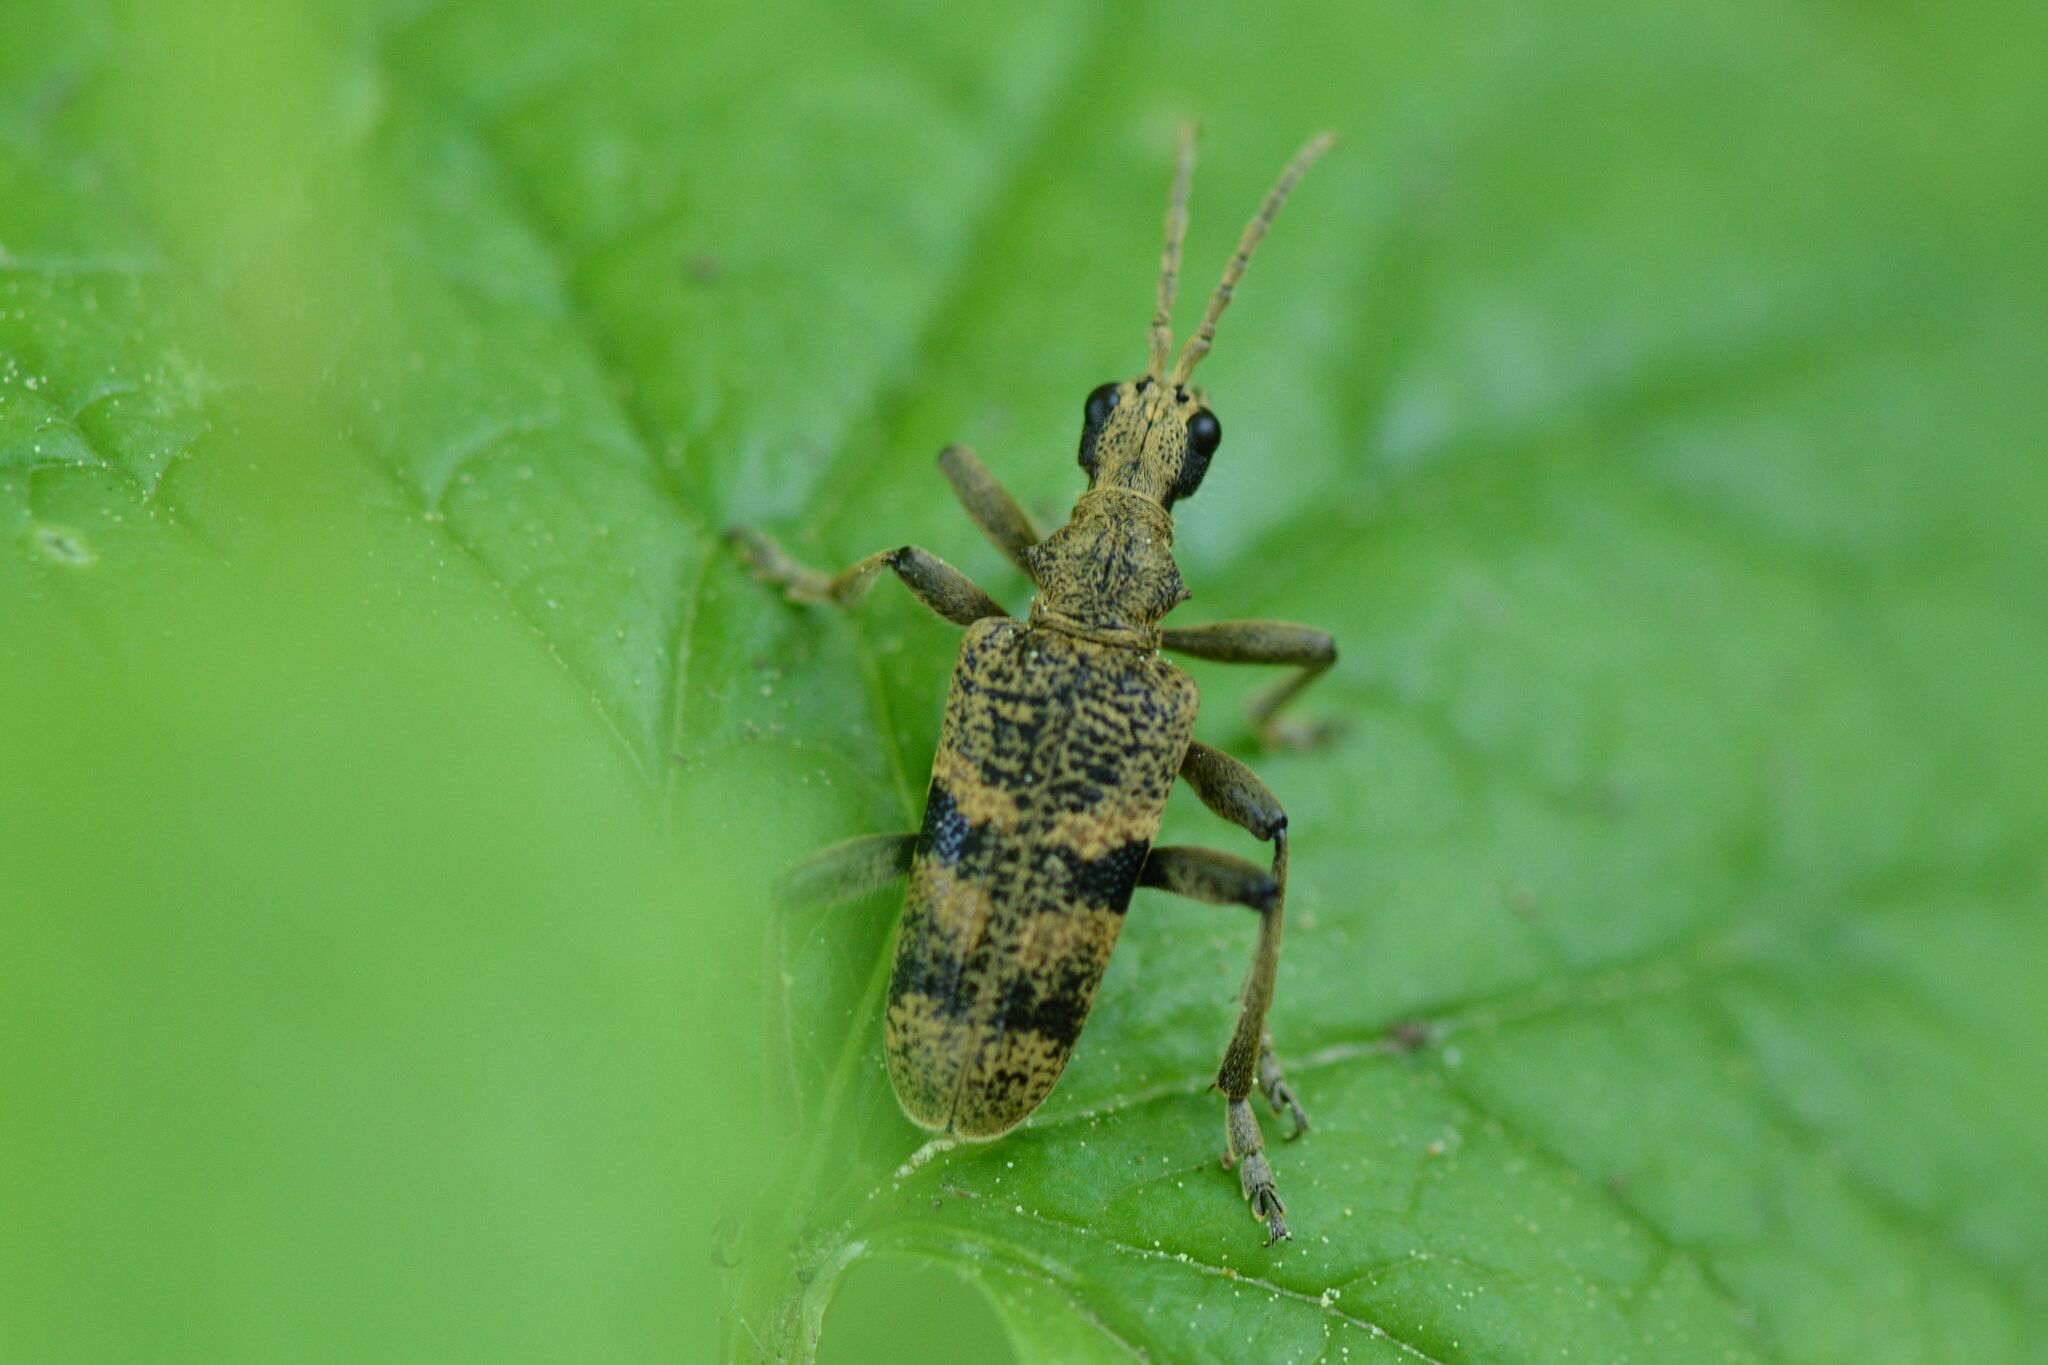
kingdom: Animalia
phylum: Arthropoda
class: Insecta
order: Coleoptera
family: Cerambycidae
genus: Rhagium
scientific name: Rhagium mordax
